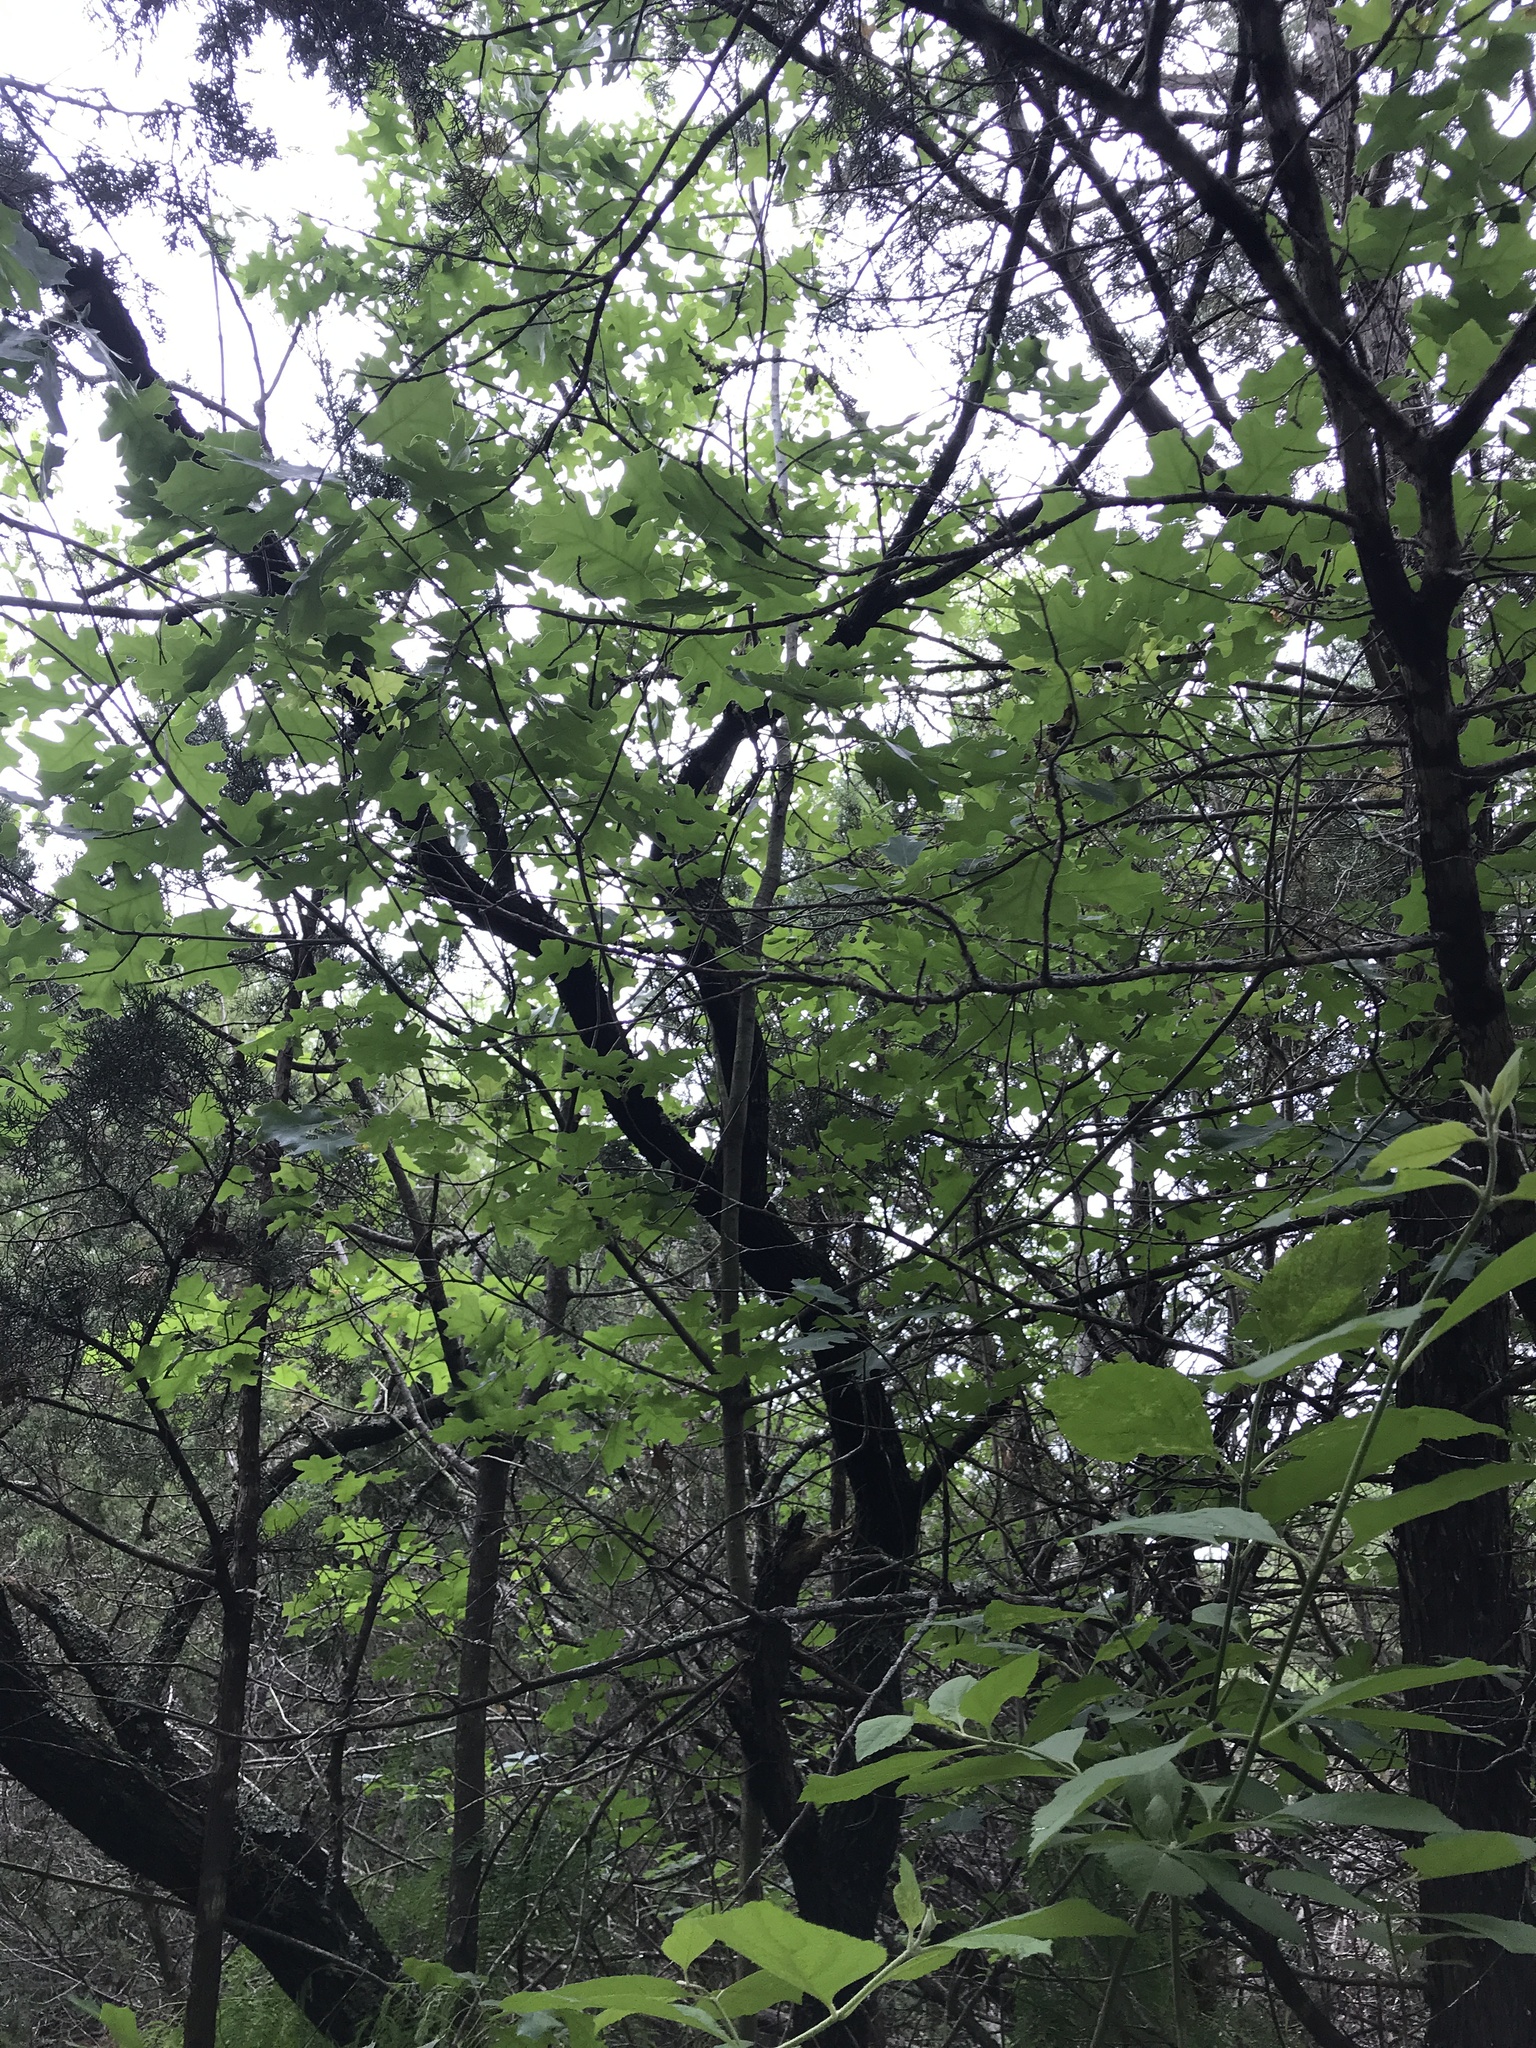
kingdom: Plantae
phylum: Tracheophyta
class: Magnoliopsida
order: Fagales
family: Fagaceae
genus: Quercus
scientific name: Quercus hastingsii
